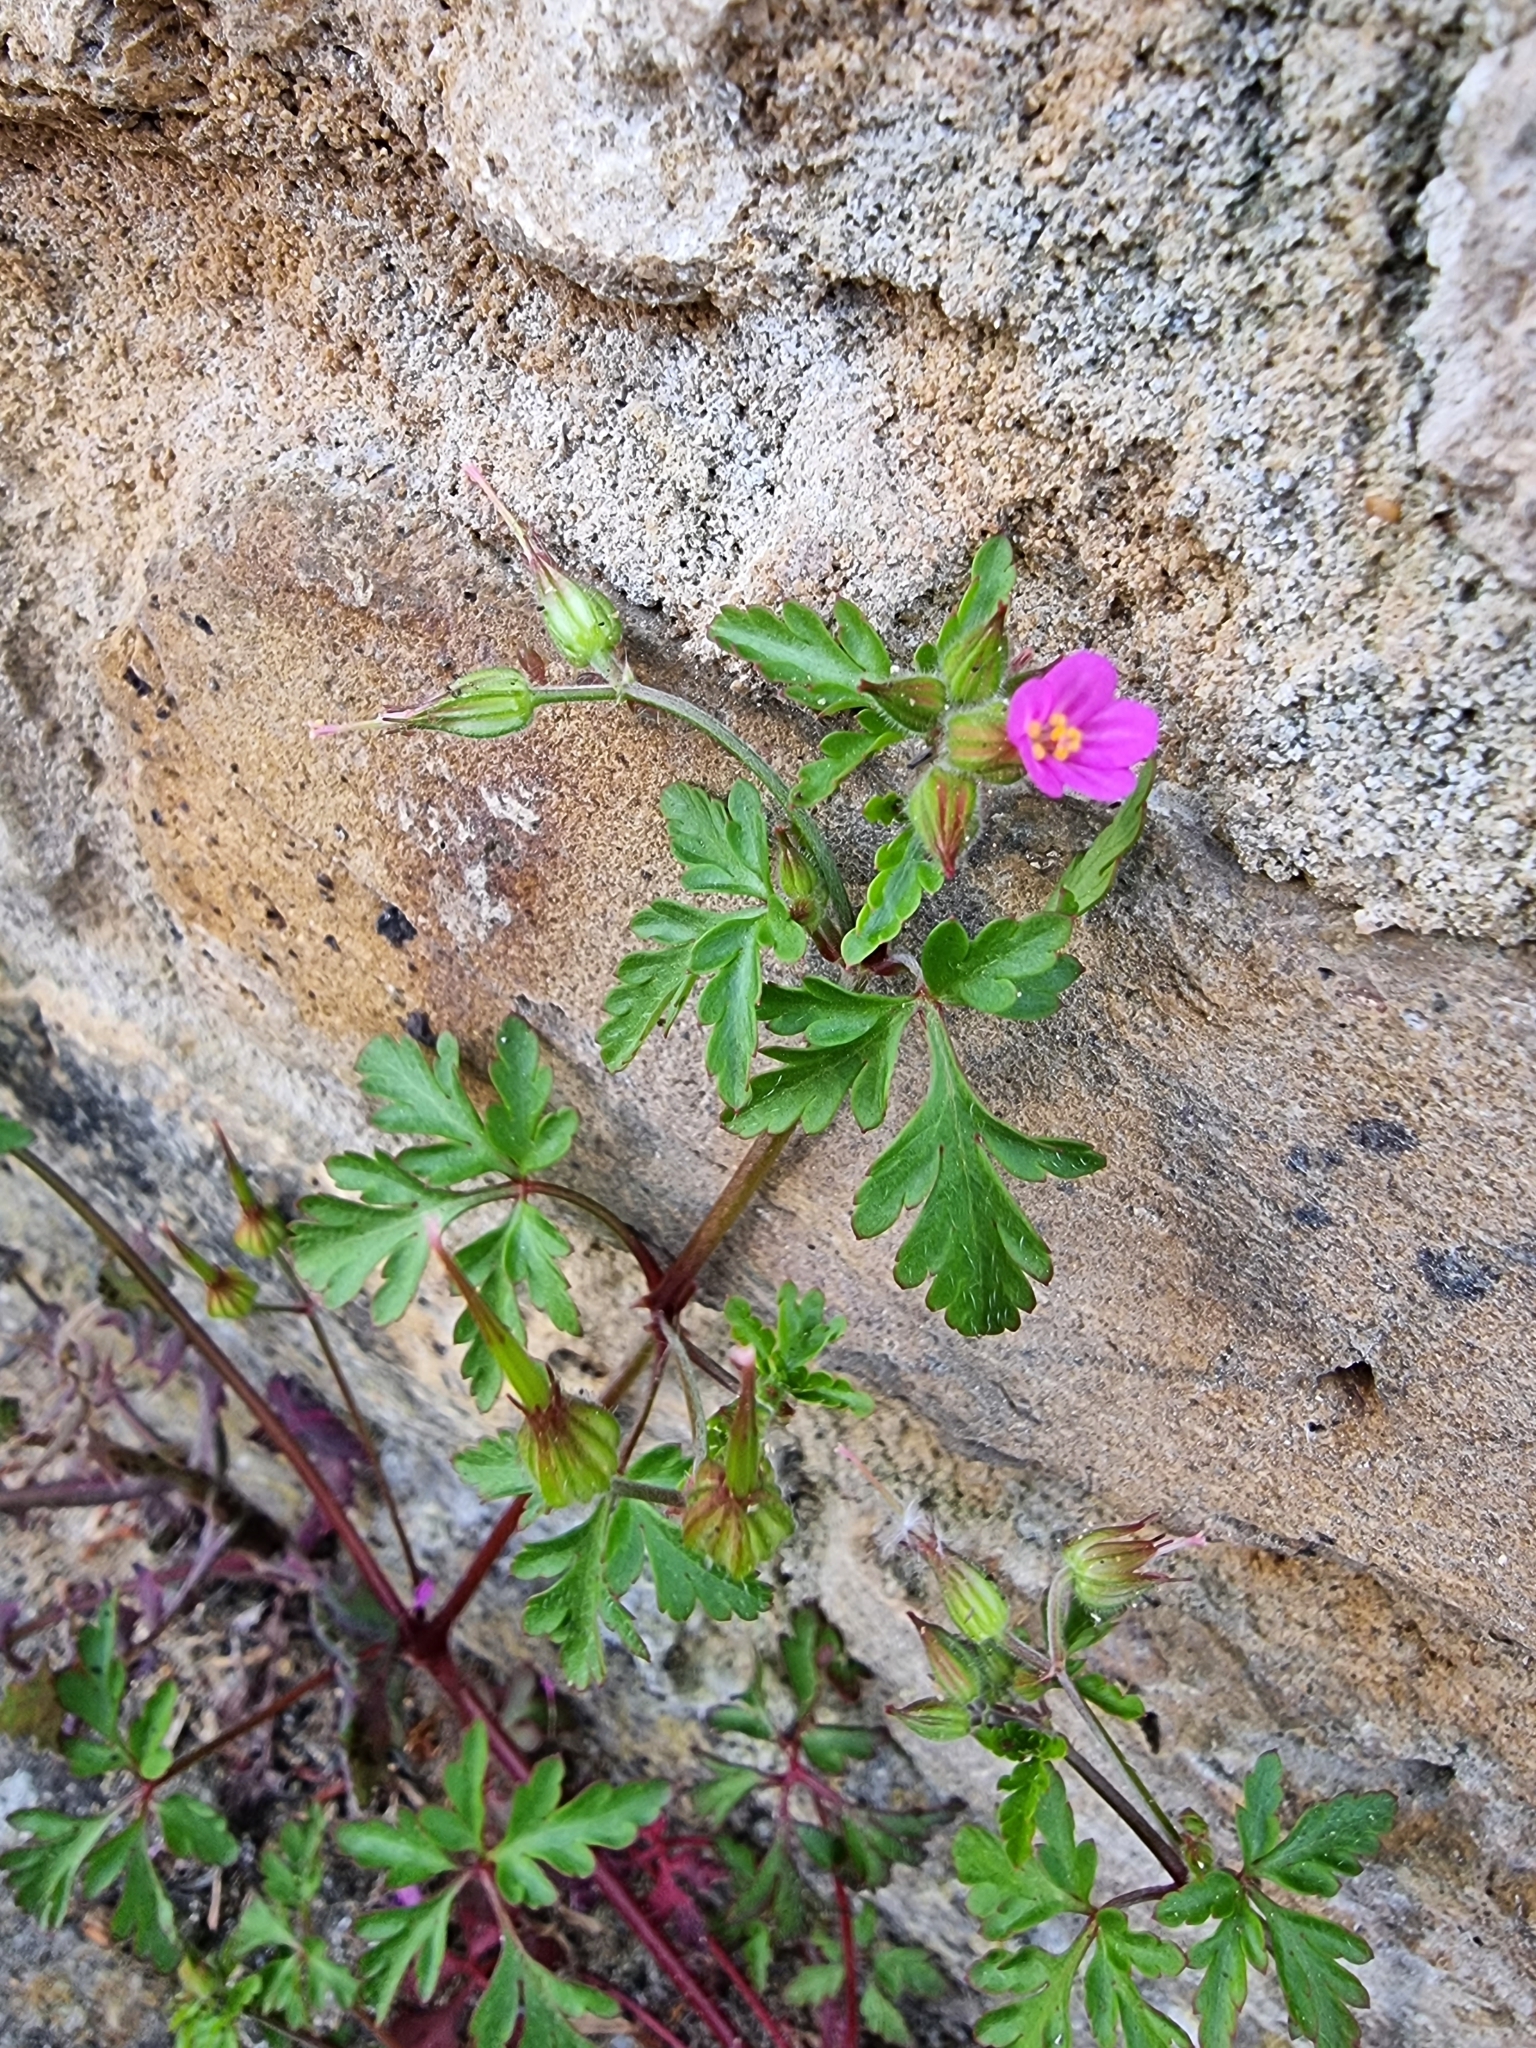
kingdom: Plantae
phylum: Tracheophyta
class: Magnoliopsida
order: Geraniales
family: Geraniaceae
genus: Geranium
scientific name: Geranium purpureum
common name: Little-robin
